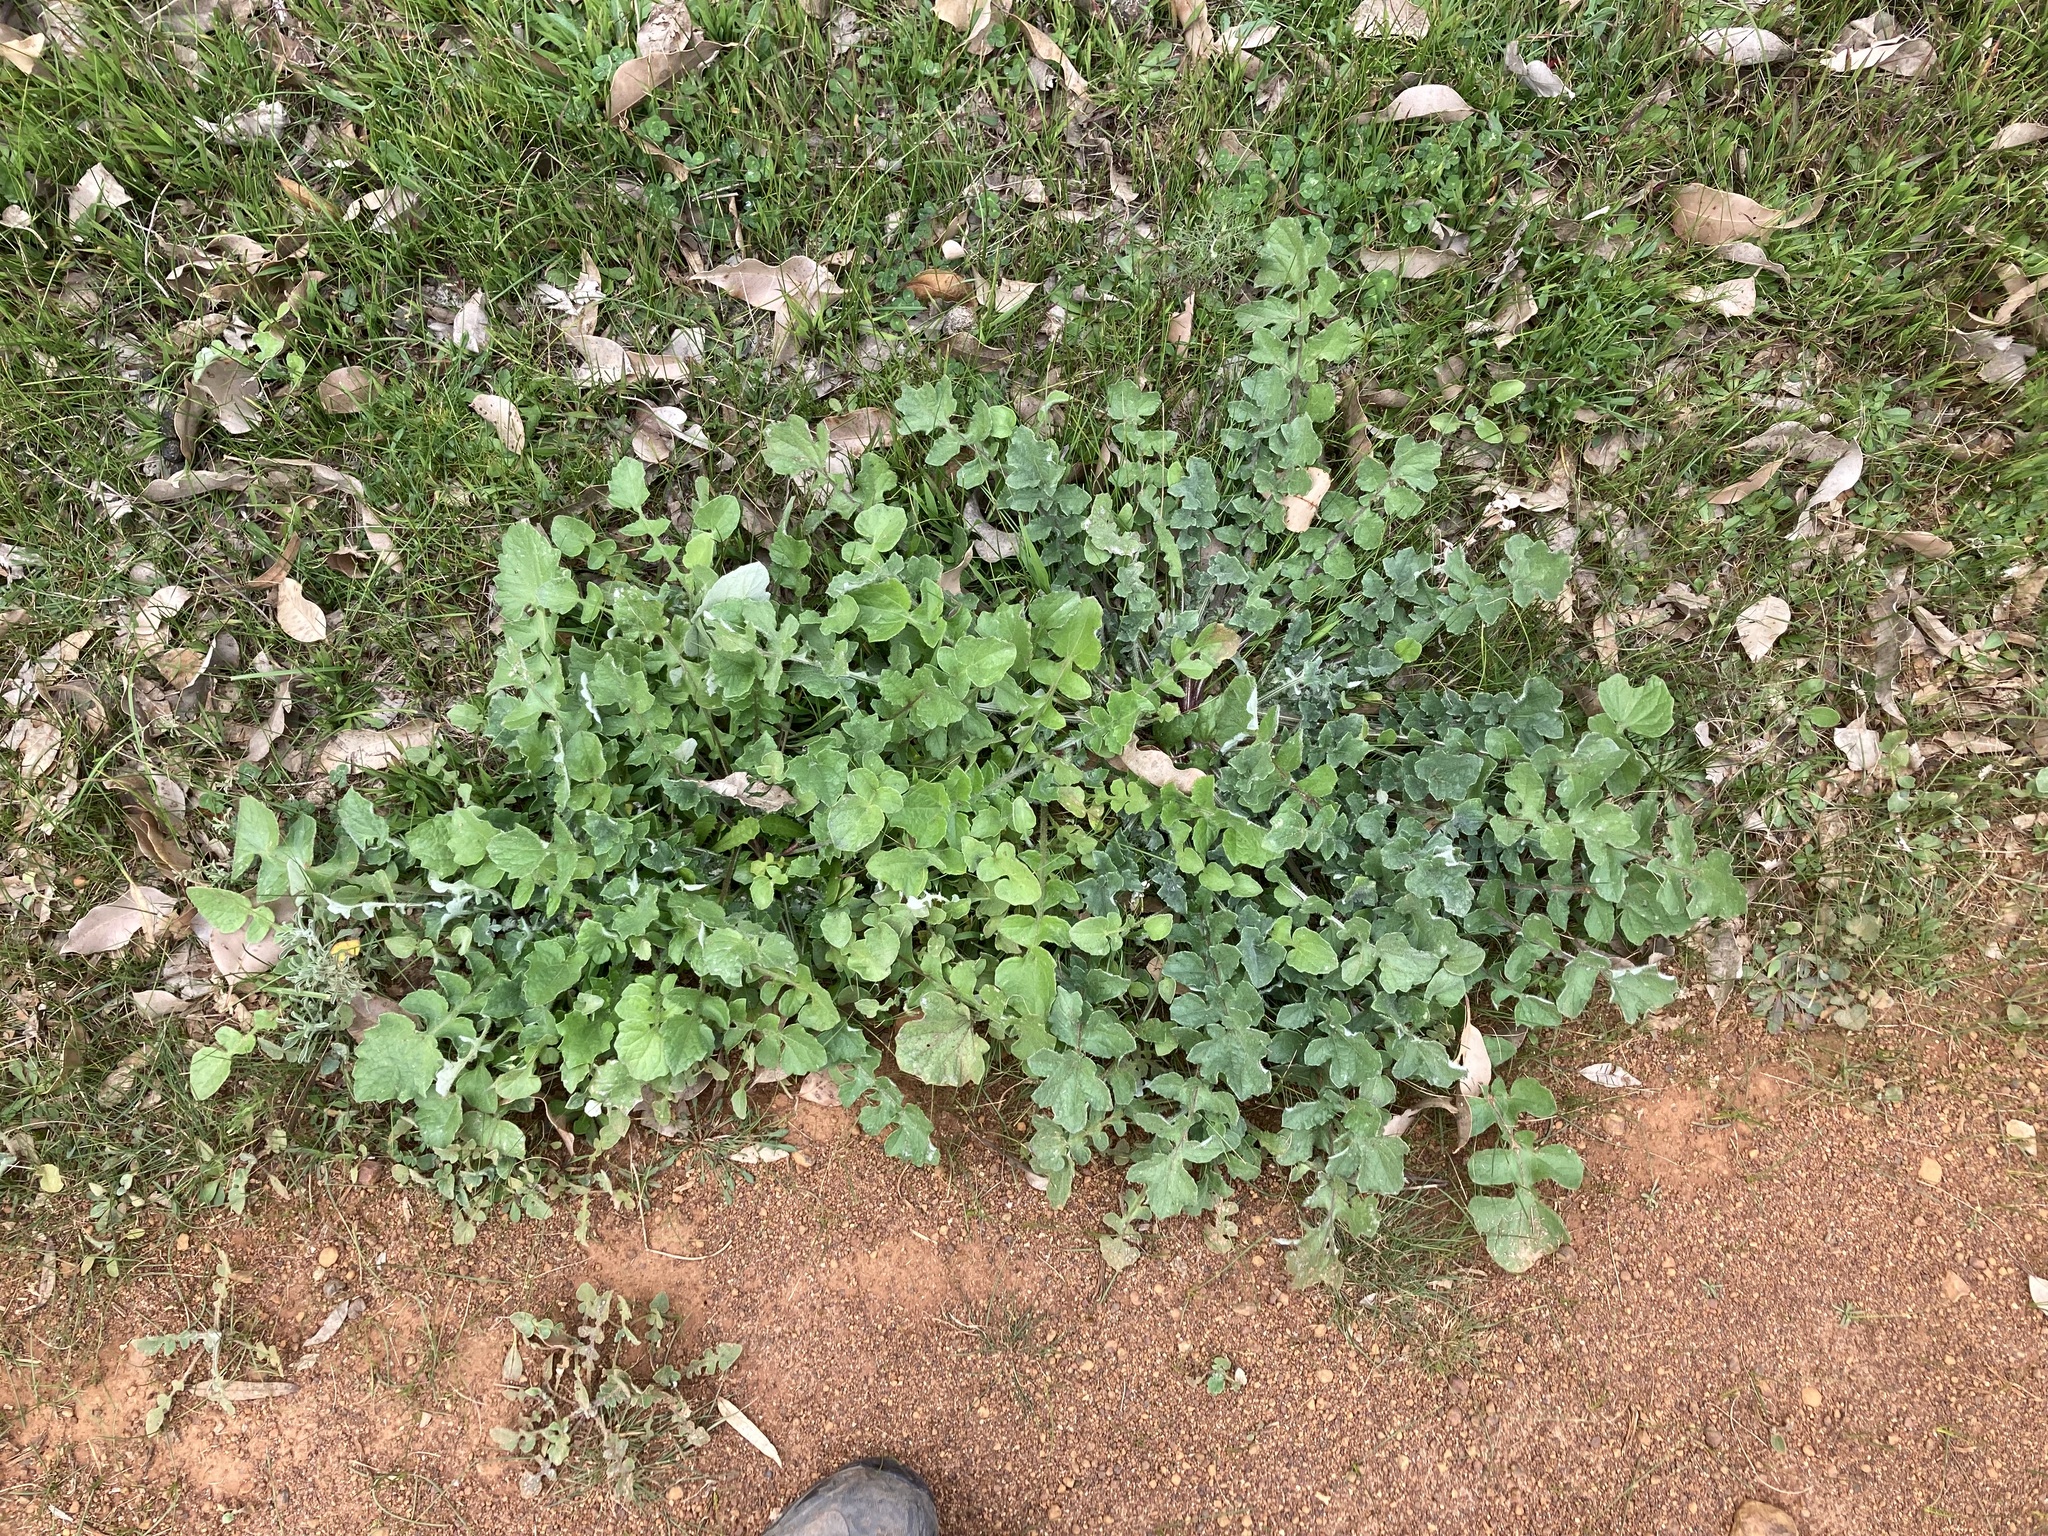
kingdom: Plantae
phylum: Tracheophyta
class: Magnoliopsida
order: Asterales
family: Asteraceae
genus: Arctotheca
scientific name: Arctotheca calendula
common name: Capeweed
